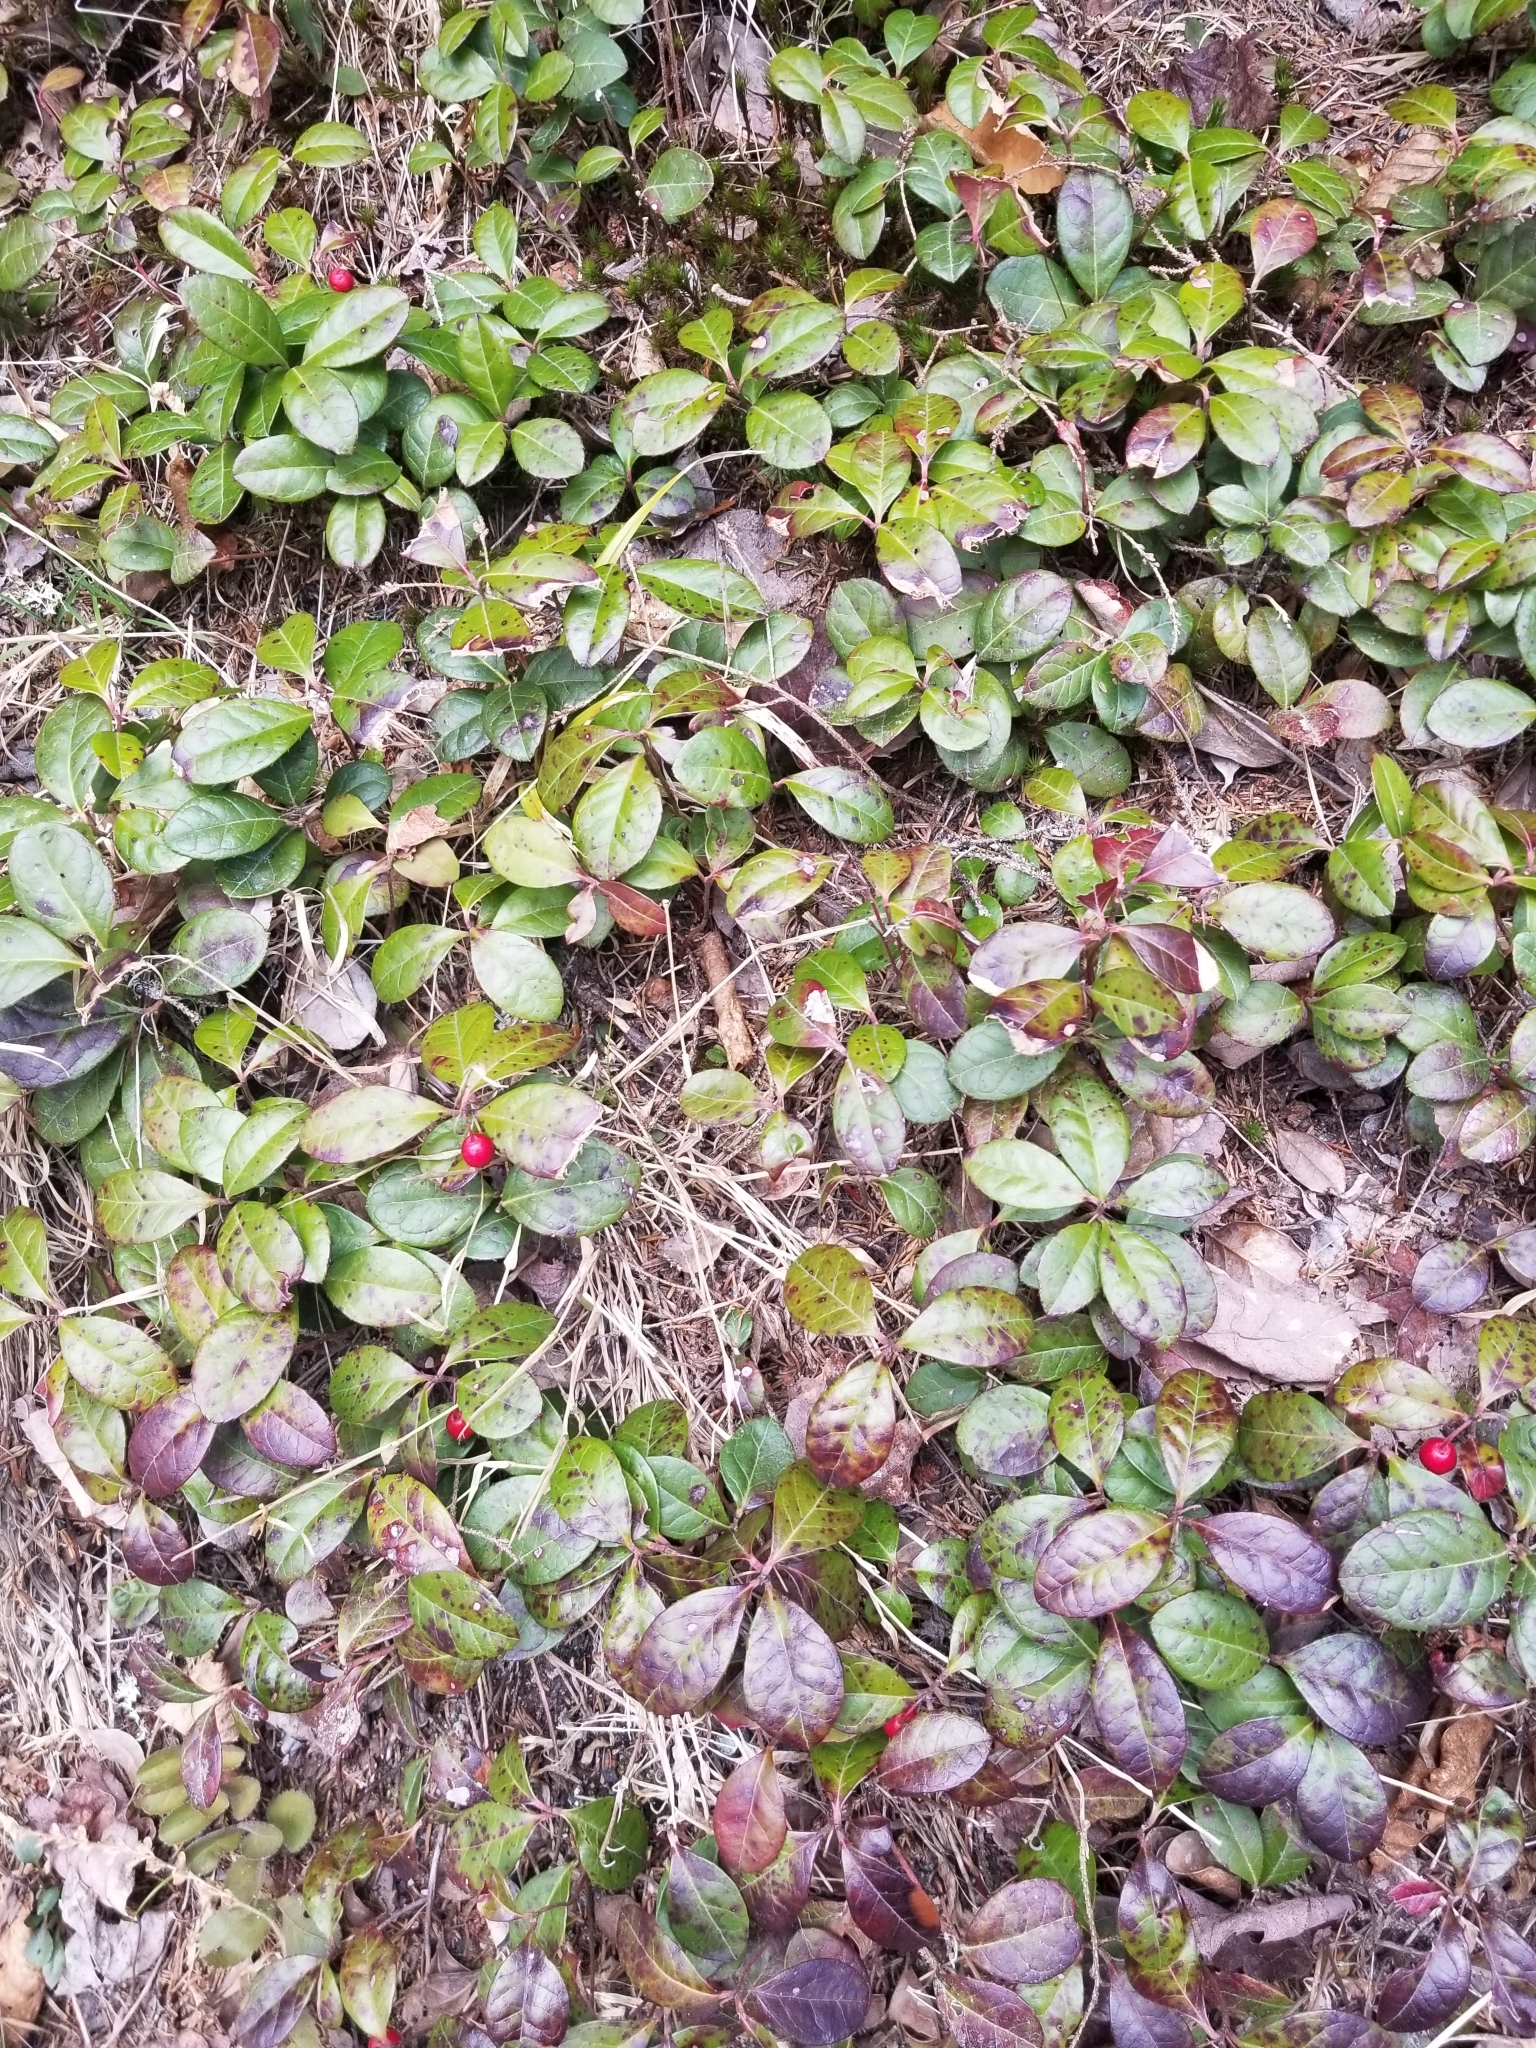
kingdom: Plantae
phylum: Tracheophyta
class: Magnoliopsida
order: Ericales
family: Ericaceae
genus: Gaultheria
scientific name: Gaultheria procumbens
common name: Checkerberry
